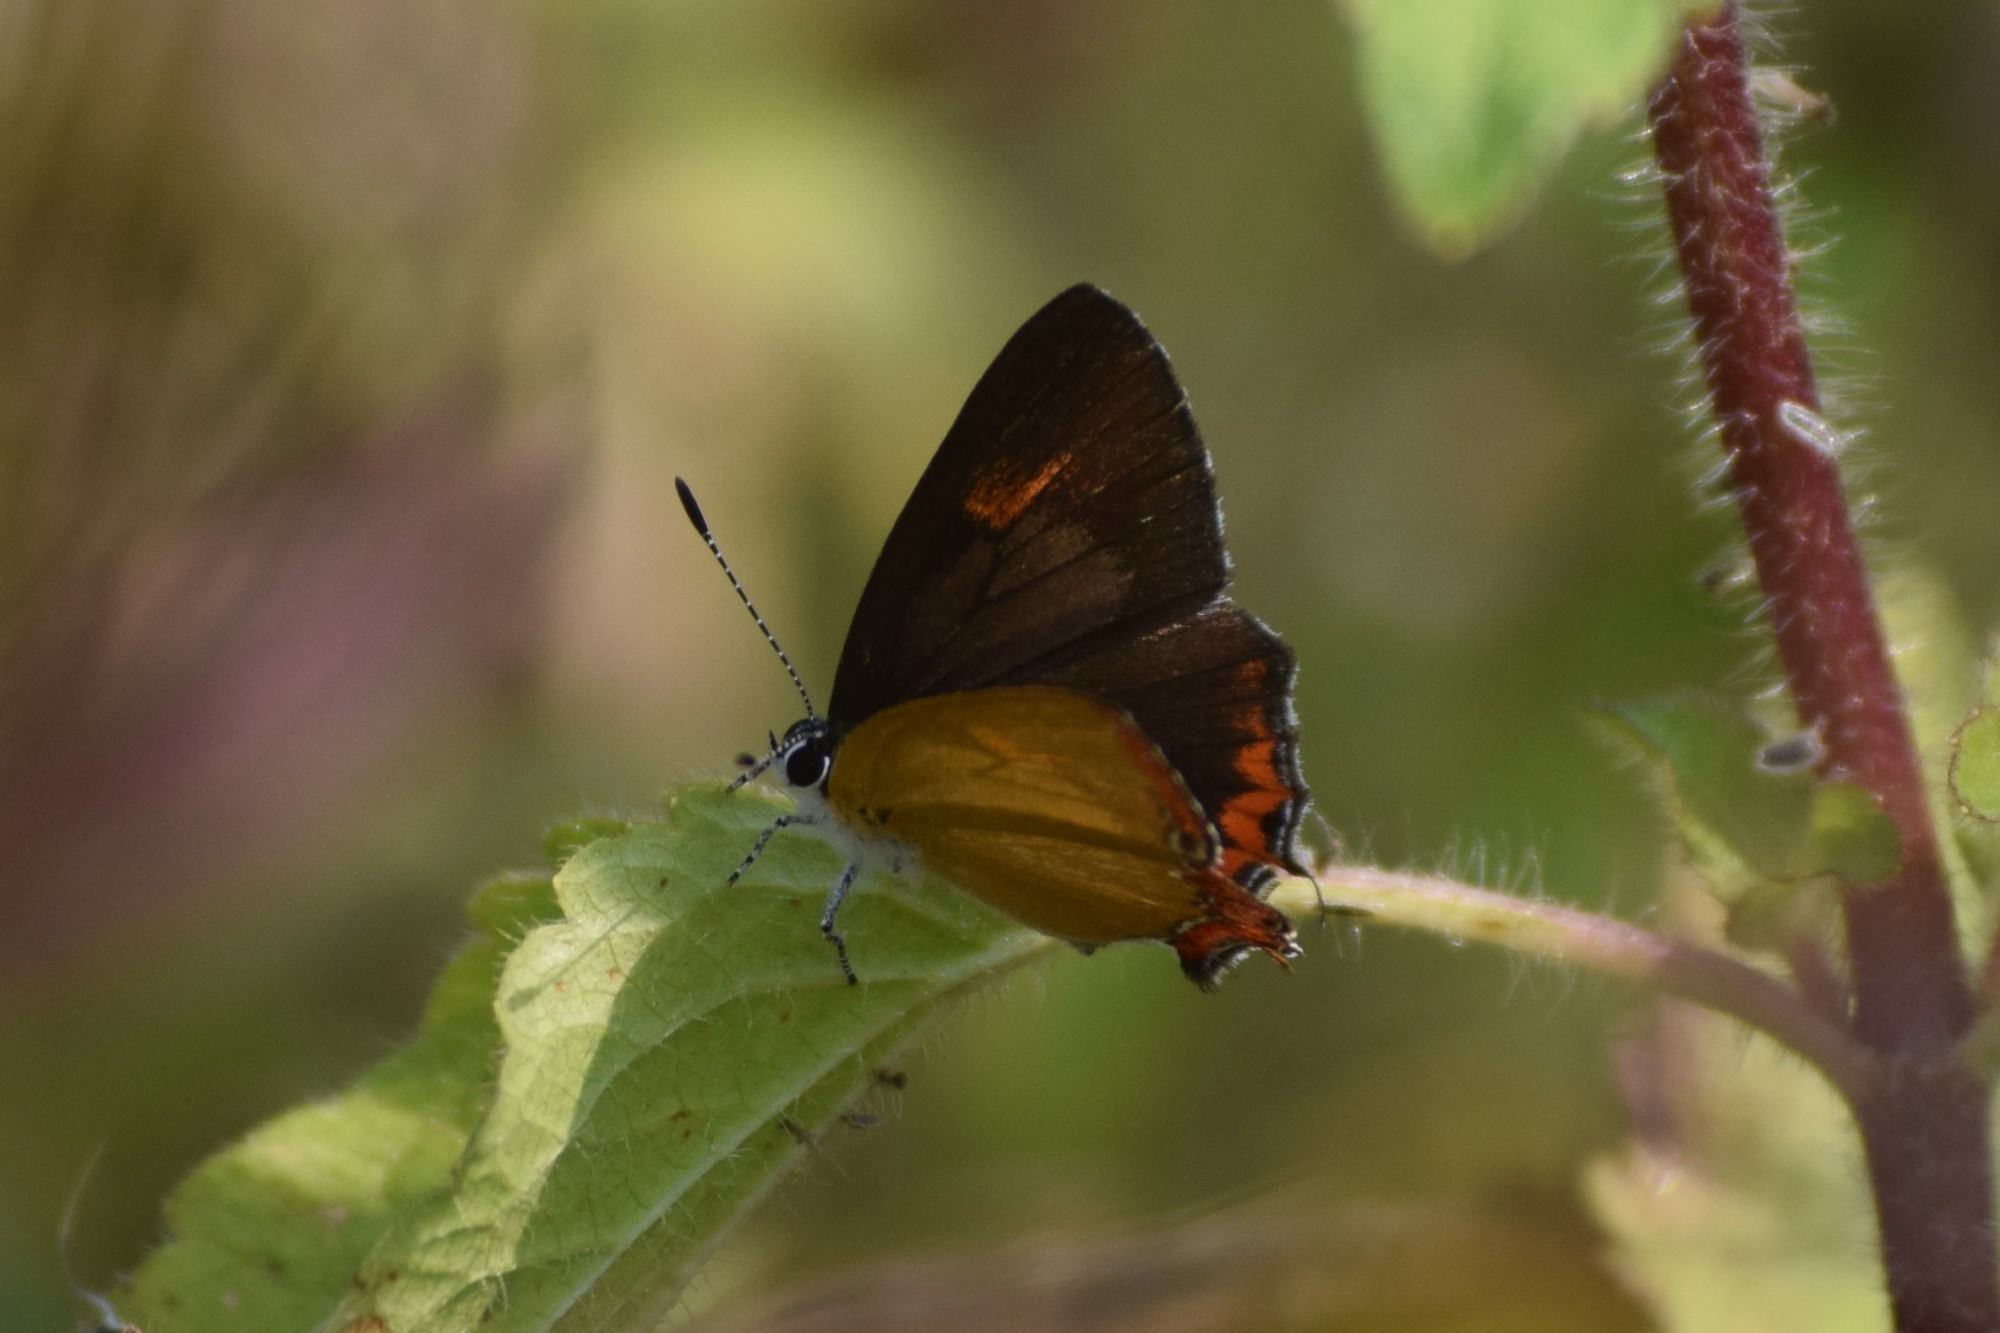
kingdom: Animalia
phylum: Arthropoda
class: Insecta
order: Lepidoptera
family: Lycaenidae
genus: Heliophorus
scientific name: Heliophorus epicles
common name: Purple sapphire
